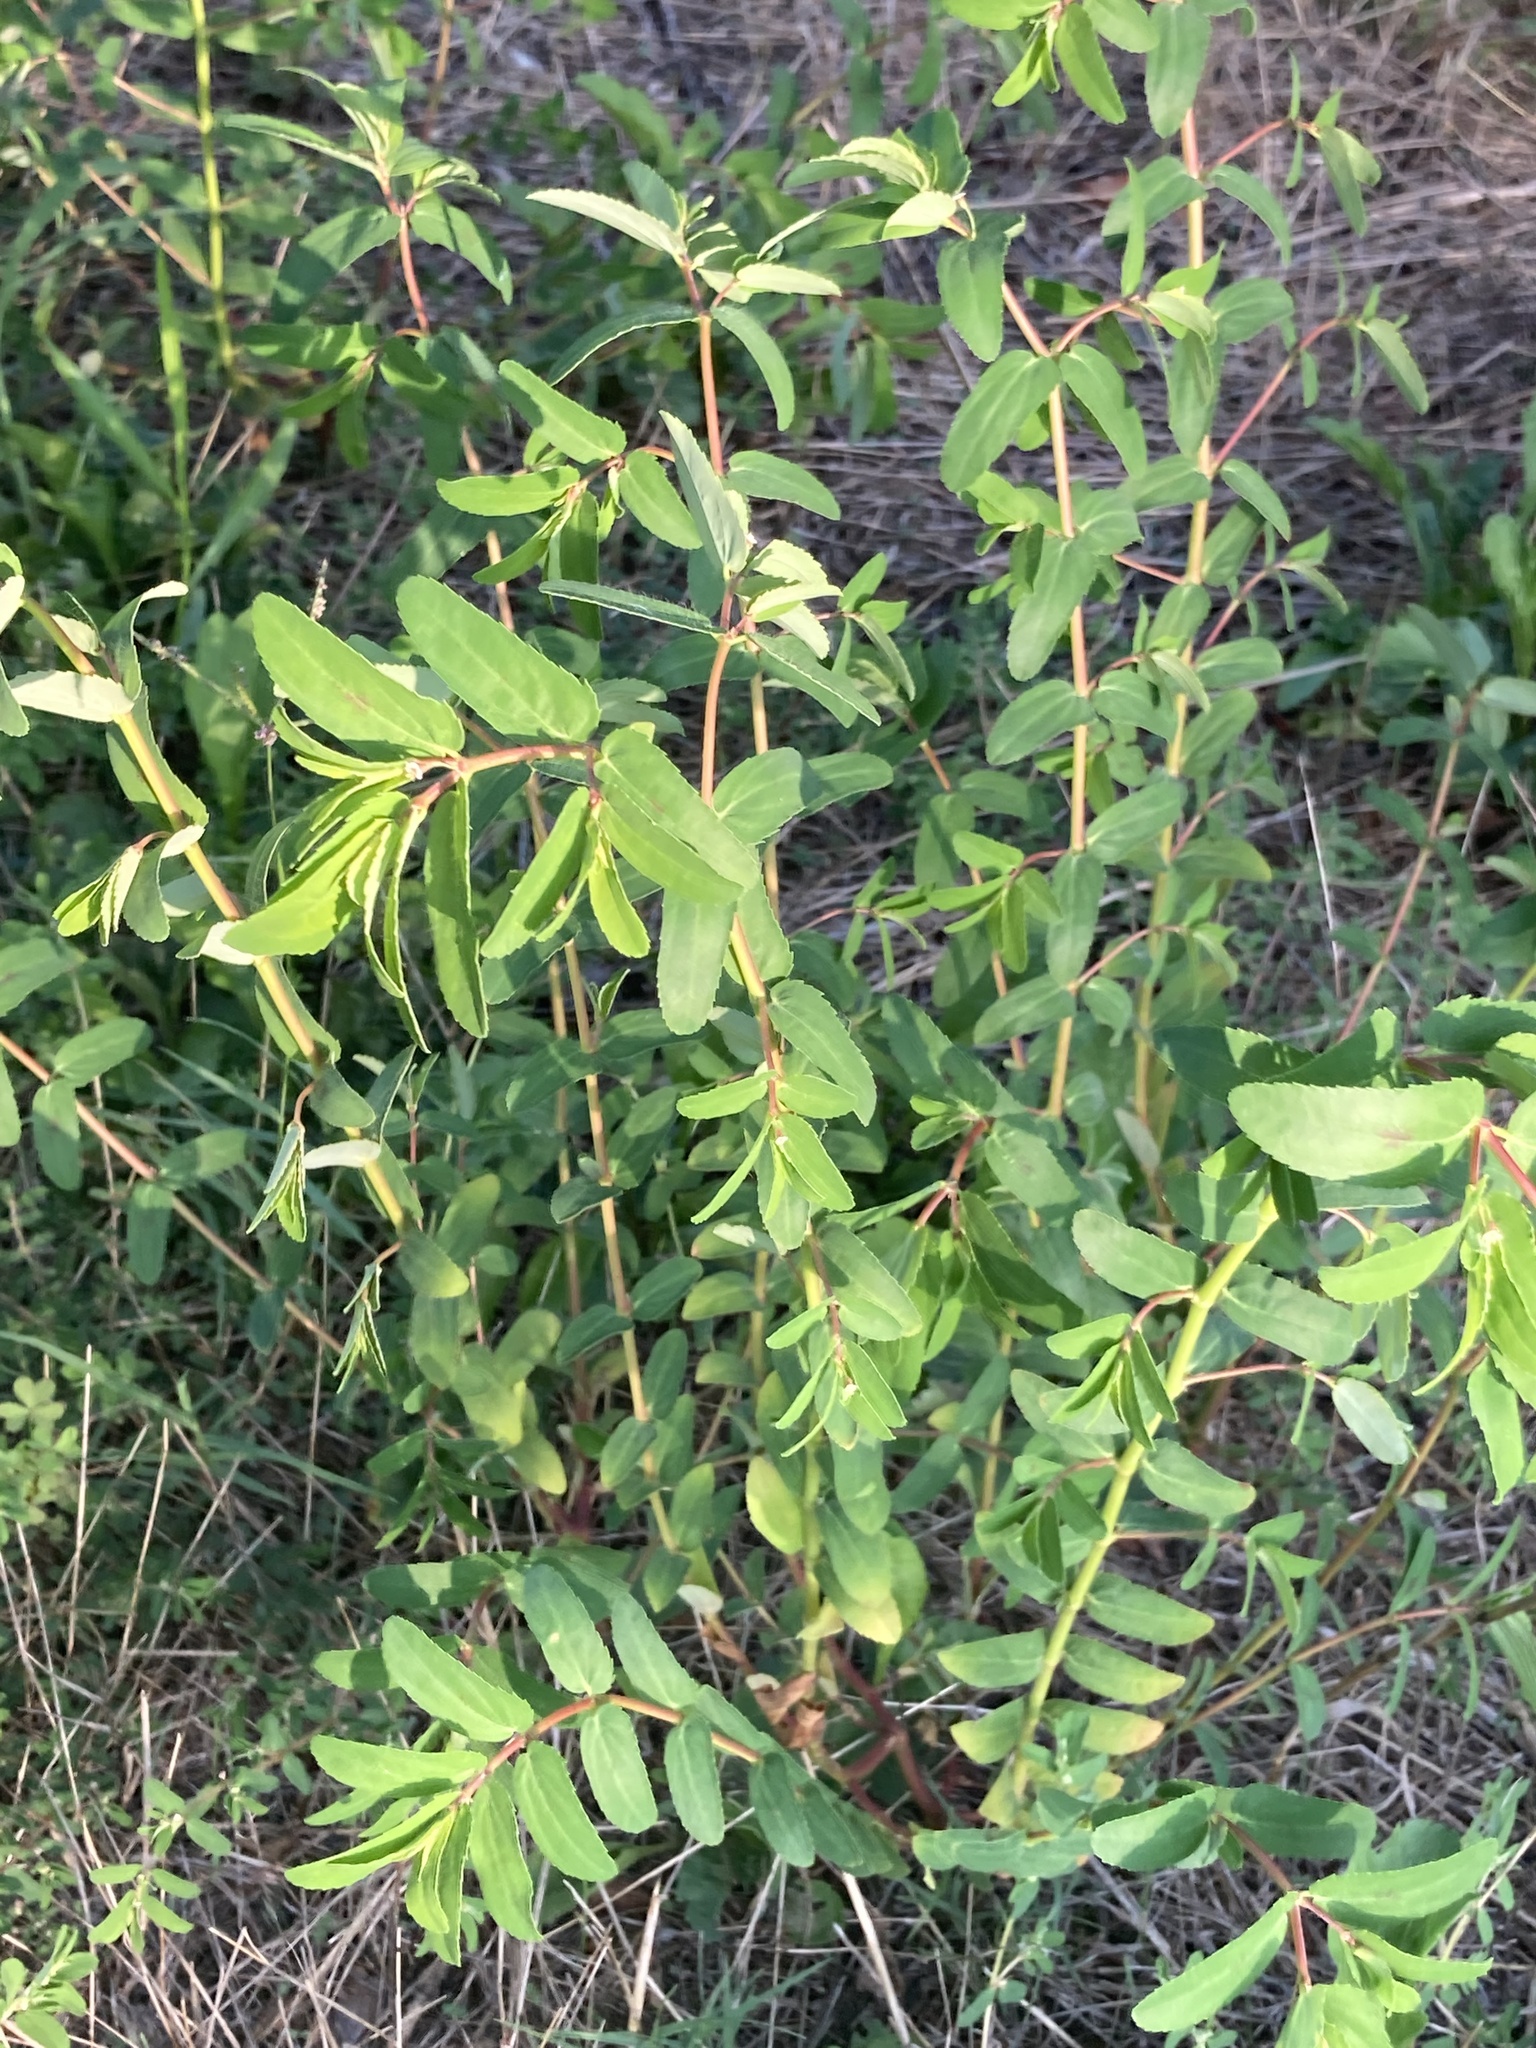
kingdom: Plantae
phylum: Tracheophyta
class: Magnoliopsida
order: Malpighiales
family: Euphorbiaceae
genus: Euphorbia
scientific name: Euphorbia nutans
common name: Eyebane
